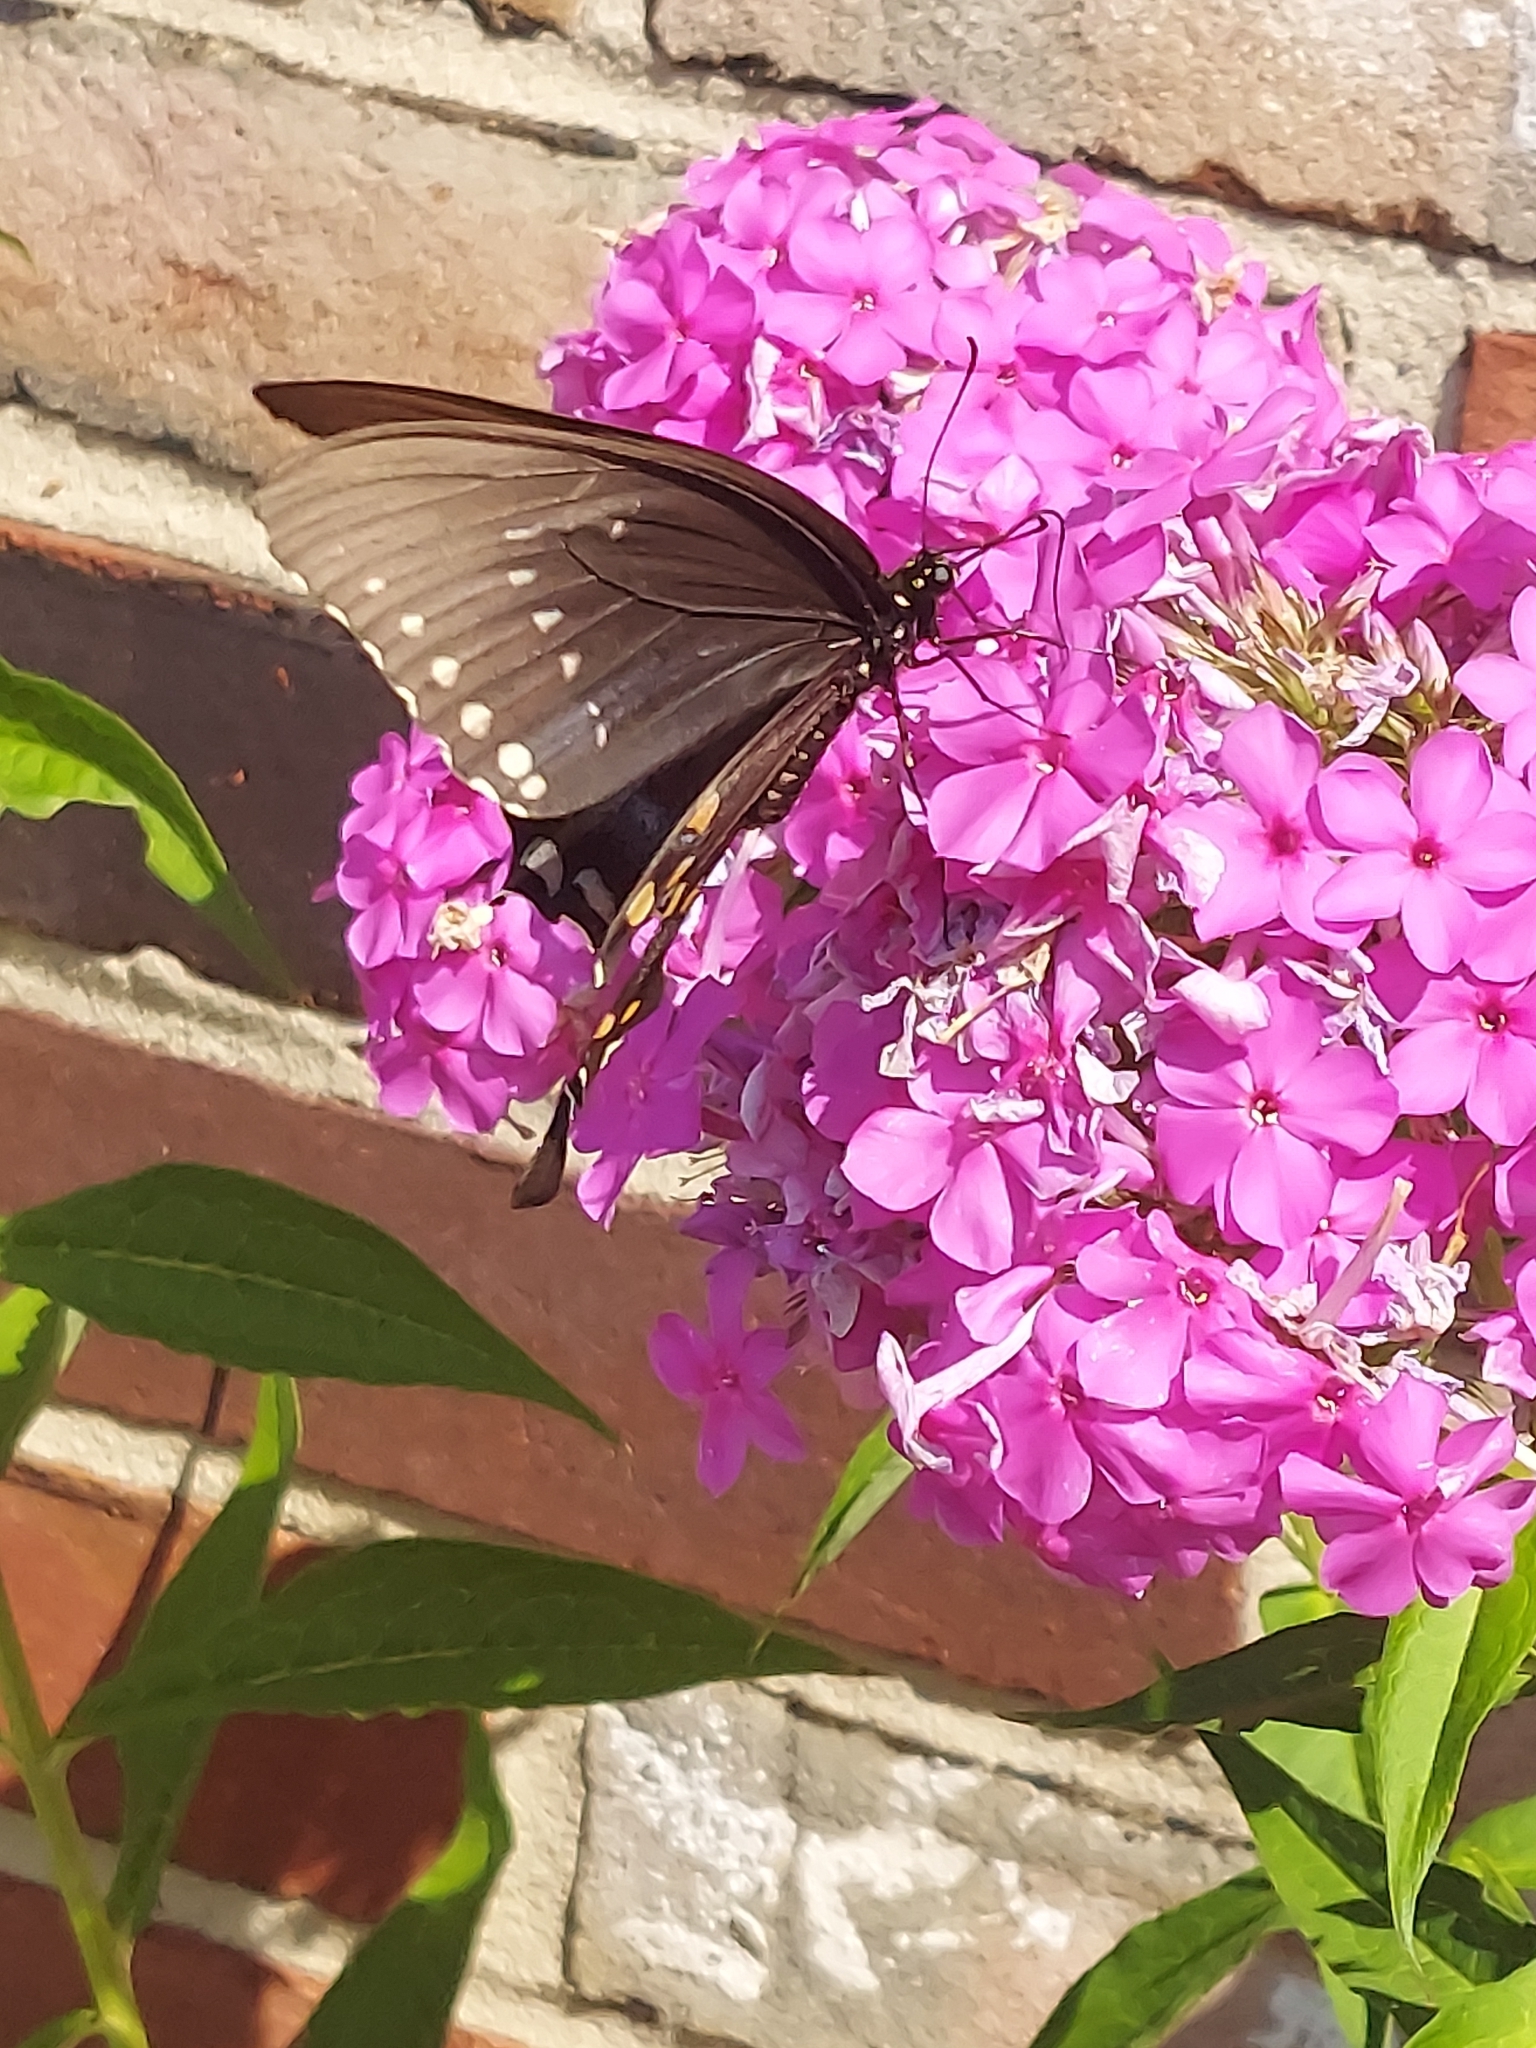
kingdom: Animalia
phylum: Arthropoda
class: Insecta
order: Lepidoptera
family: Papilionidae
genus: Papilio
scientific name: Papilio troilus
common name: Spicebush swallowtail
